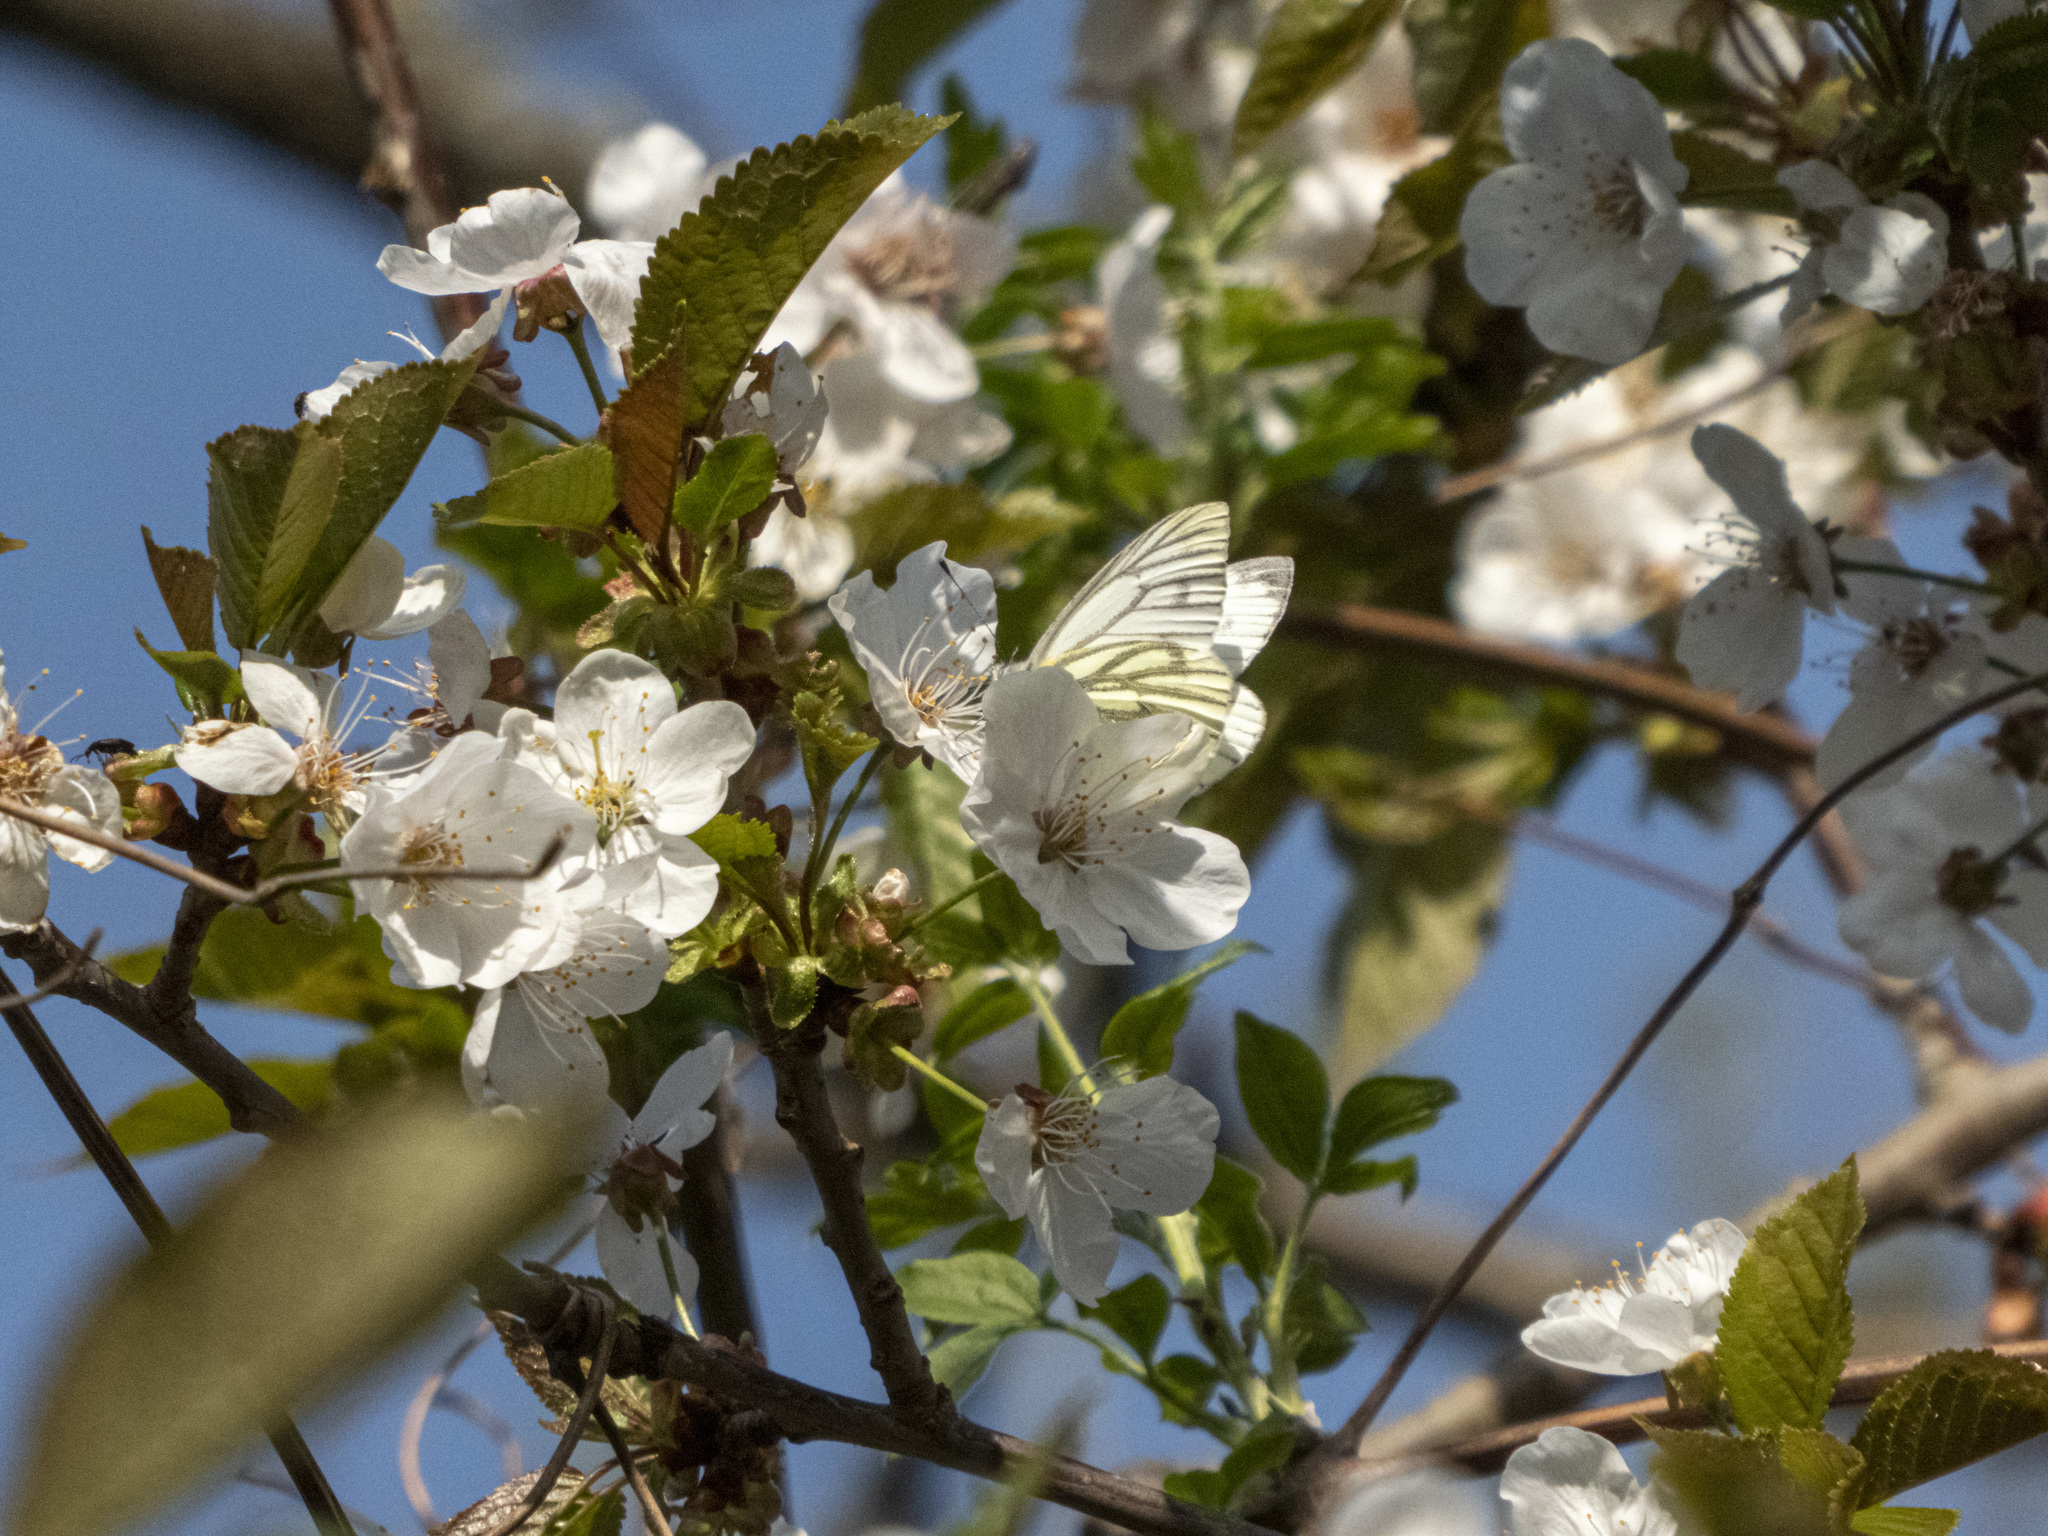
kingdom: Animalia
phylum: Arthropoda
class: Insecta
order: Lepidoptera
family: Pieridae
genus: Pieris
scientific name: Pieris napi
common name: Green-veined white
